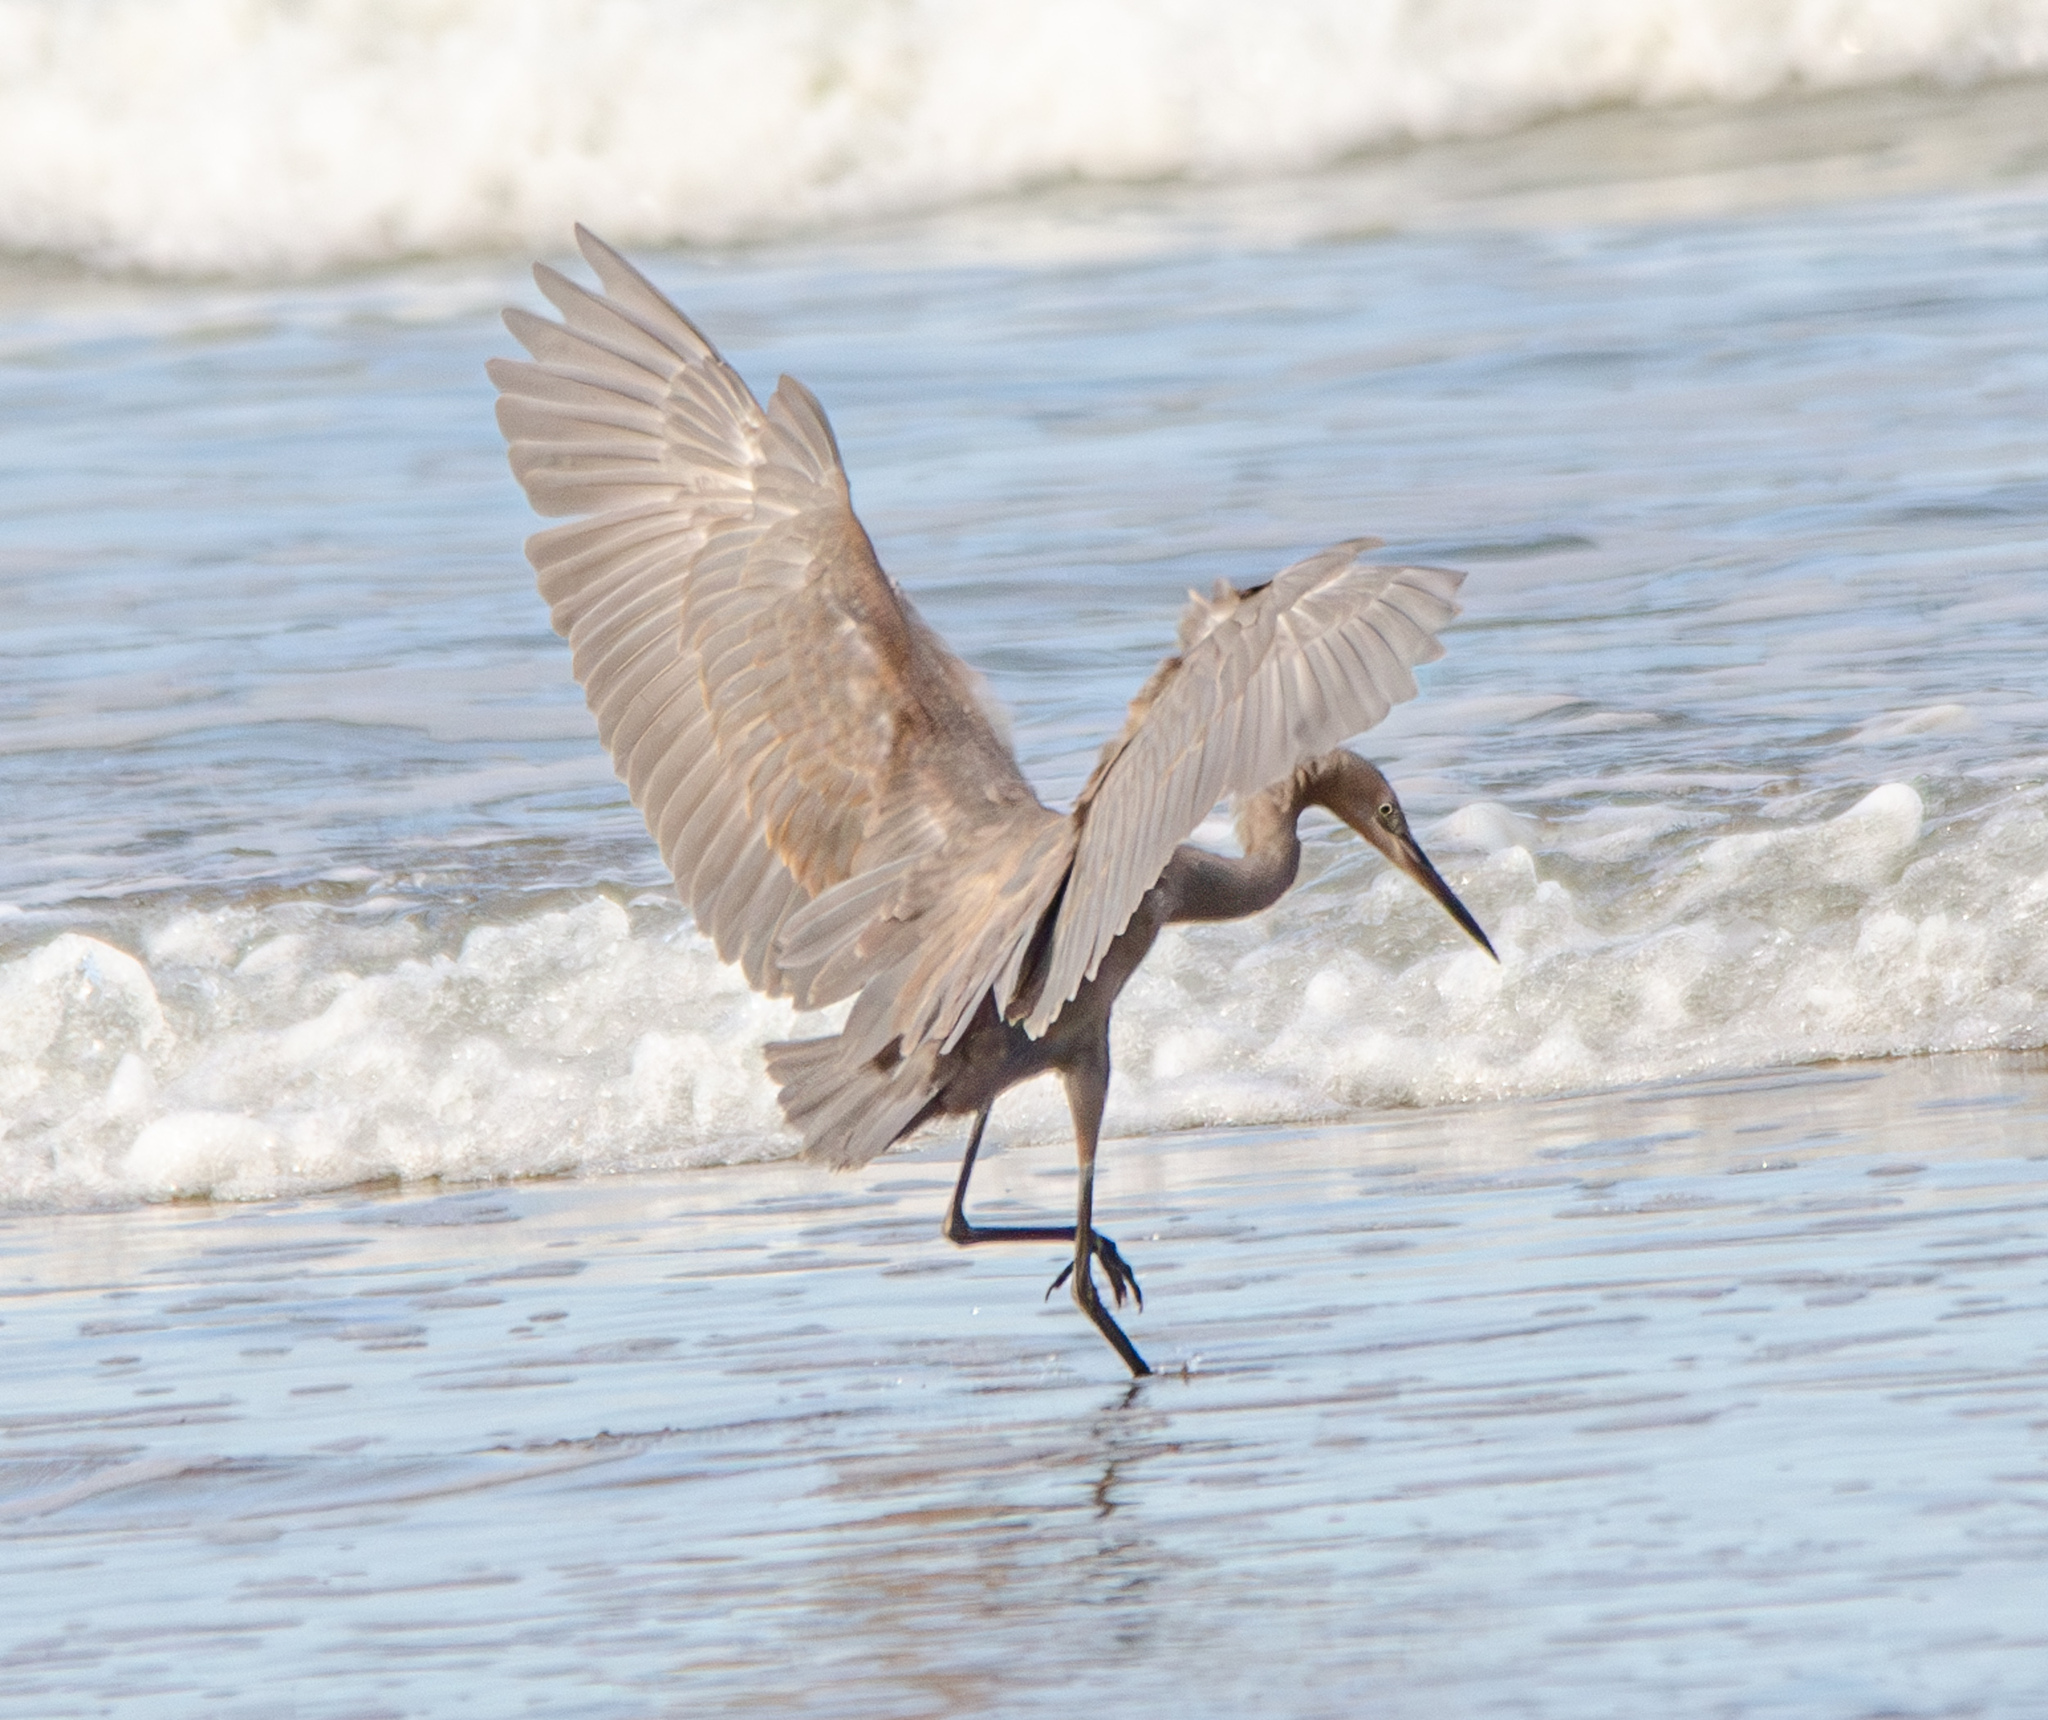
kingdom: Animalia
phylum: Chordata
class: Aves
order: Pelecaniformes
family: Ardeidae
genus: Egretta
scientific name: Egretta rufescens
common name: Reddish egret
